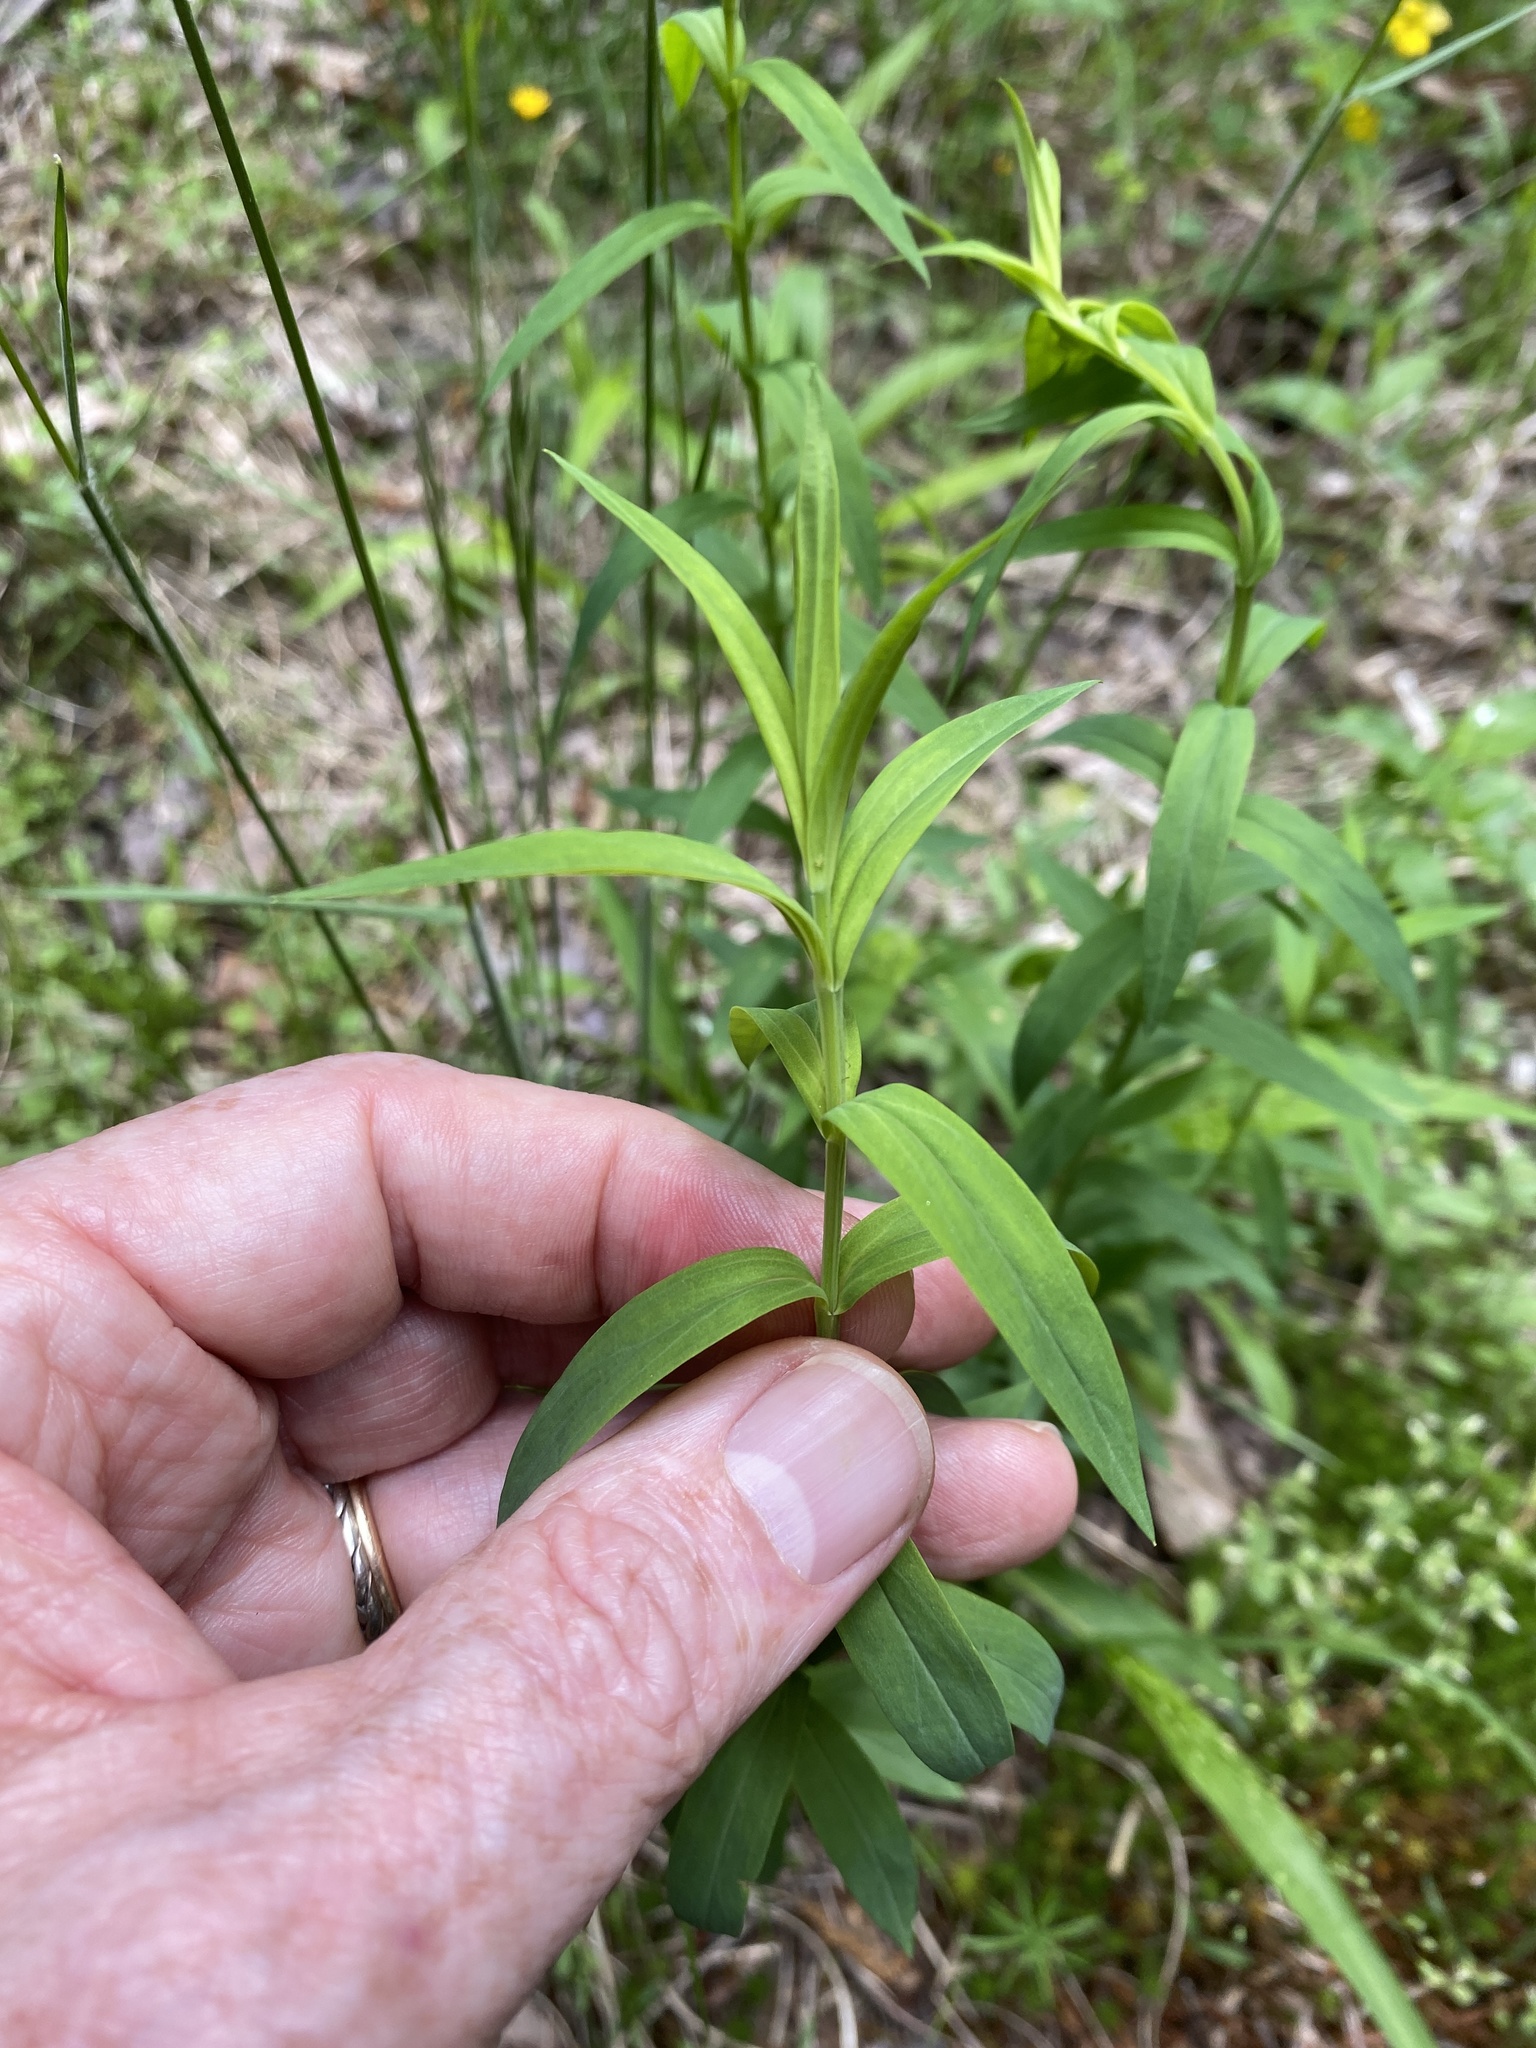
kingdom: Plantae
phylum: Tracheophyta
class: Magnoliopsida
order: Malpighiales
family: Hypericaceae
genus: Hypericum
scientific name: Hypericum radfordiorum
